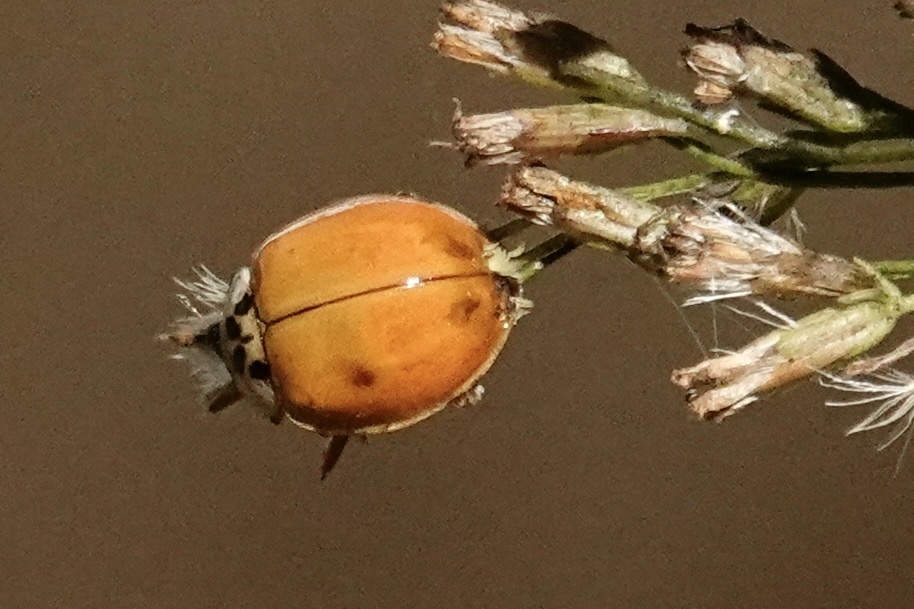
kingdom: Animalia
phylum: Arthropoda
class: Insecta
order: Coleoptera
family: Coccinellidae
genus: Harmonia
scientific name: Harmonia axyridis
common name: Harlequin ladybird
